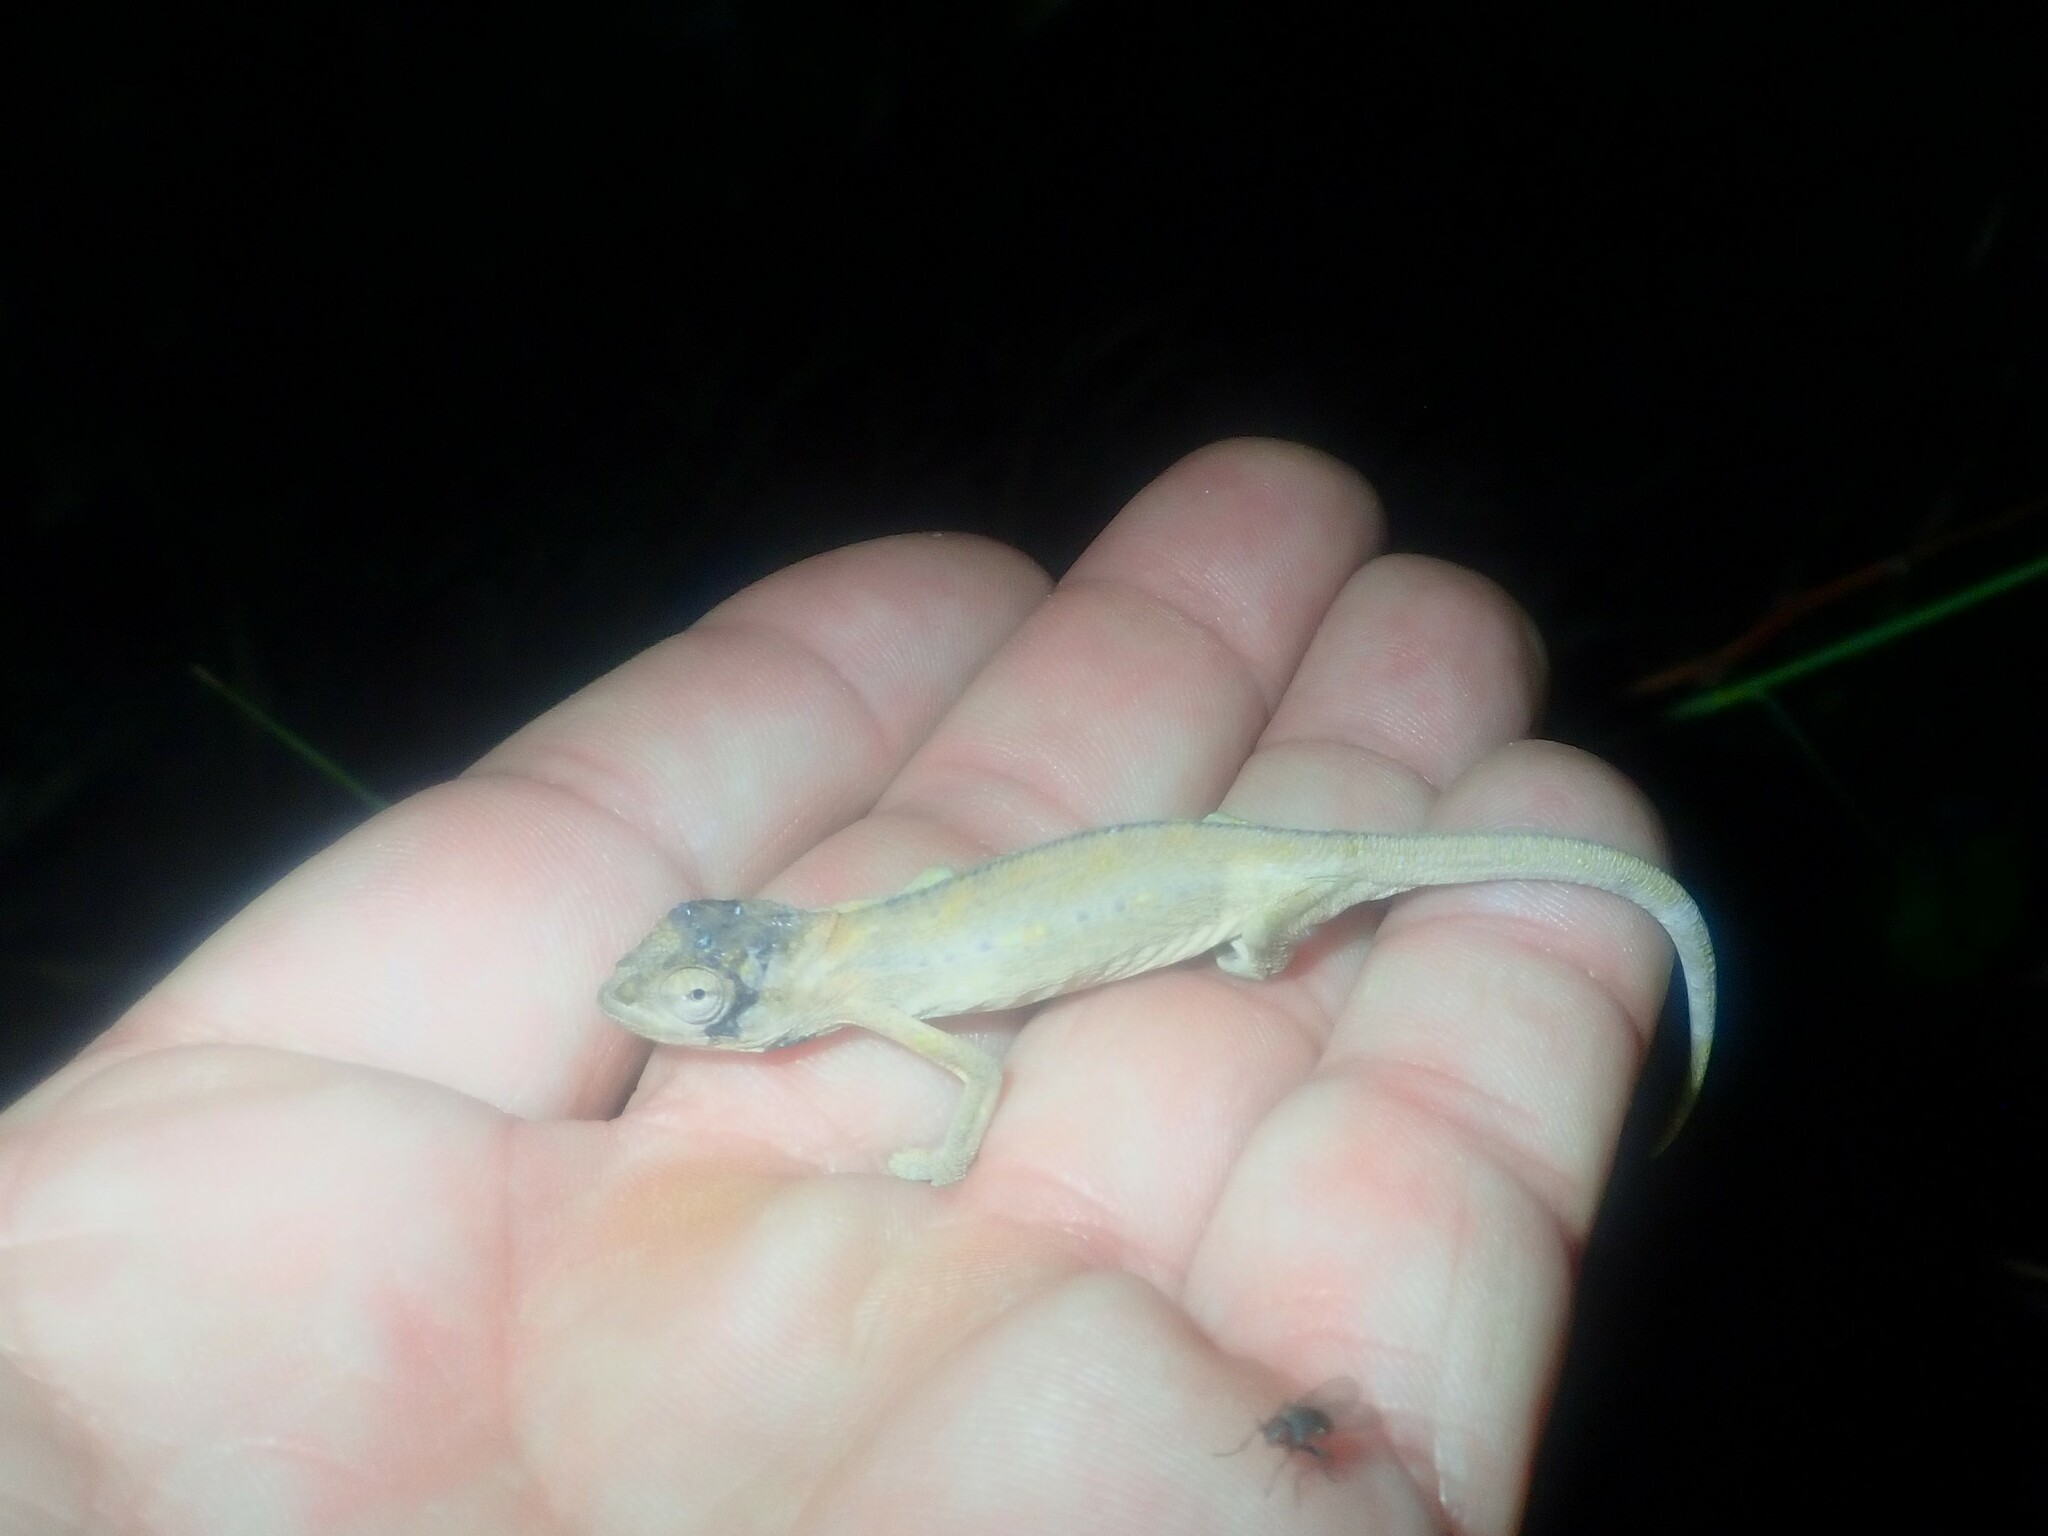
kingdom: Animalia
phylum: Chordata
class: Squamata
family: Chamaeleonidae
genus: Bradypodion
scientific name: Bradypodion pumilum
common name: Cape dwarf chameleon
